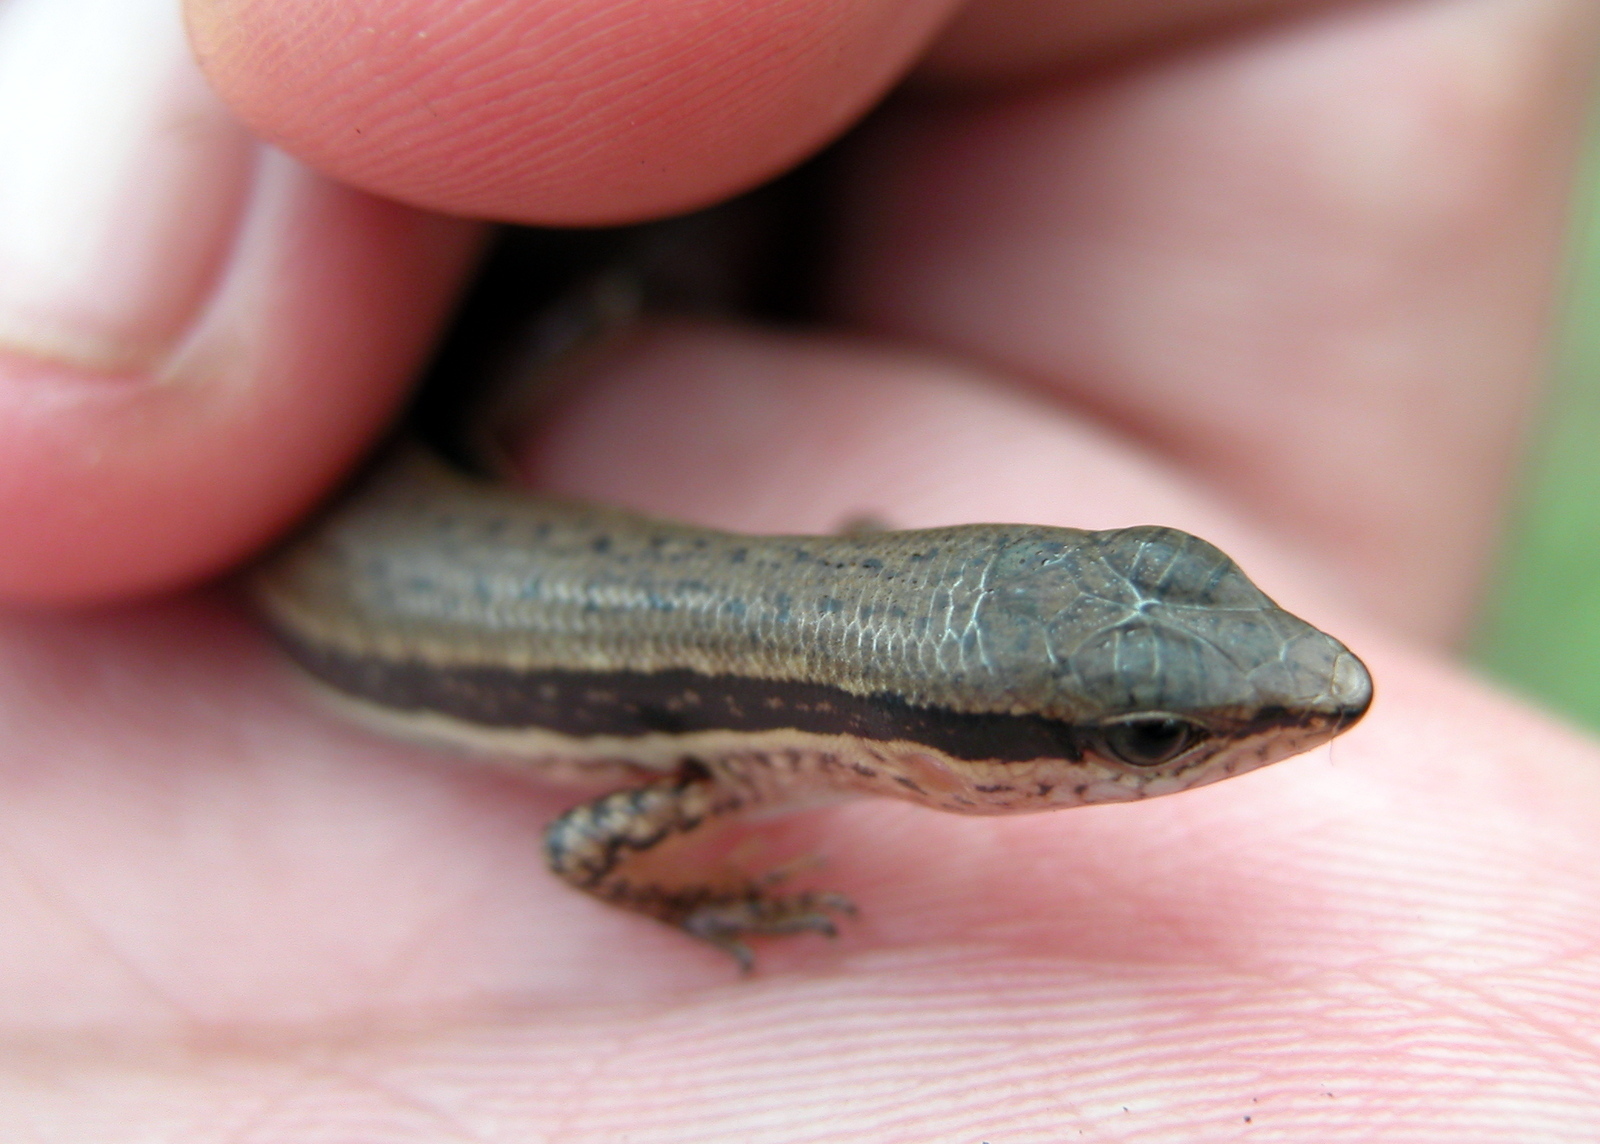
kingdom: Animalia
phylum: Chordata
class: Squamata
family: Scincidae
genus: Sphenomorphus
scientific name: Sphenomorphus maculatus
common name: Maculated forest skink
